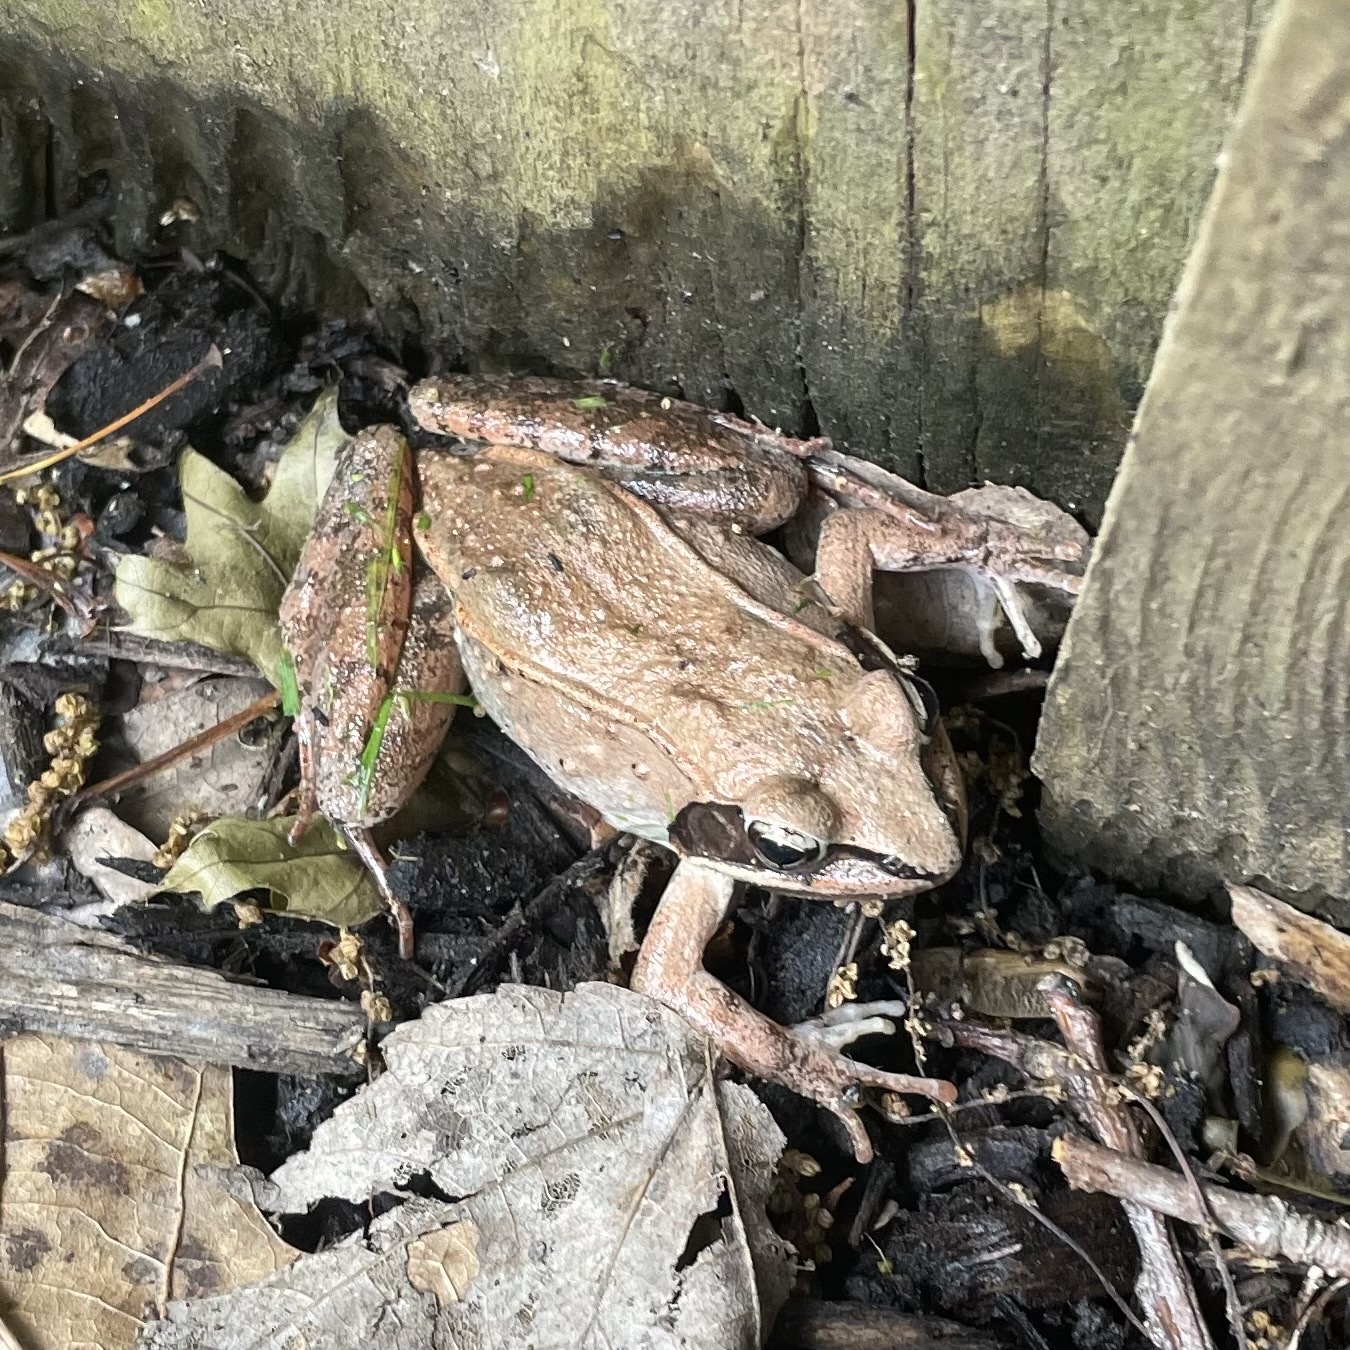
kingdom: Animalia
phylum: Chordata
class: Amphibia
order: Anura
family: Ranidae
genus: Lithobates
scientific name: Lithobates sylvaticus
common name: Wood frog
